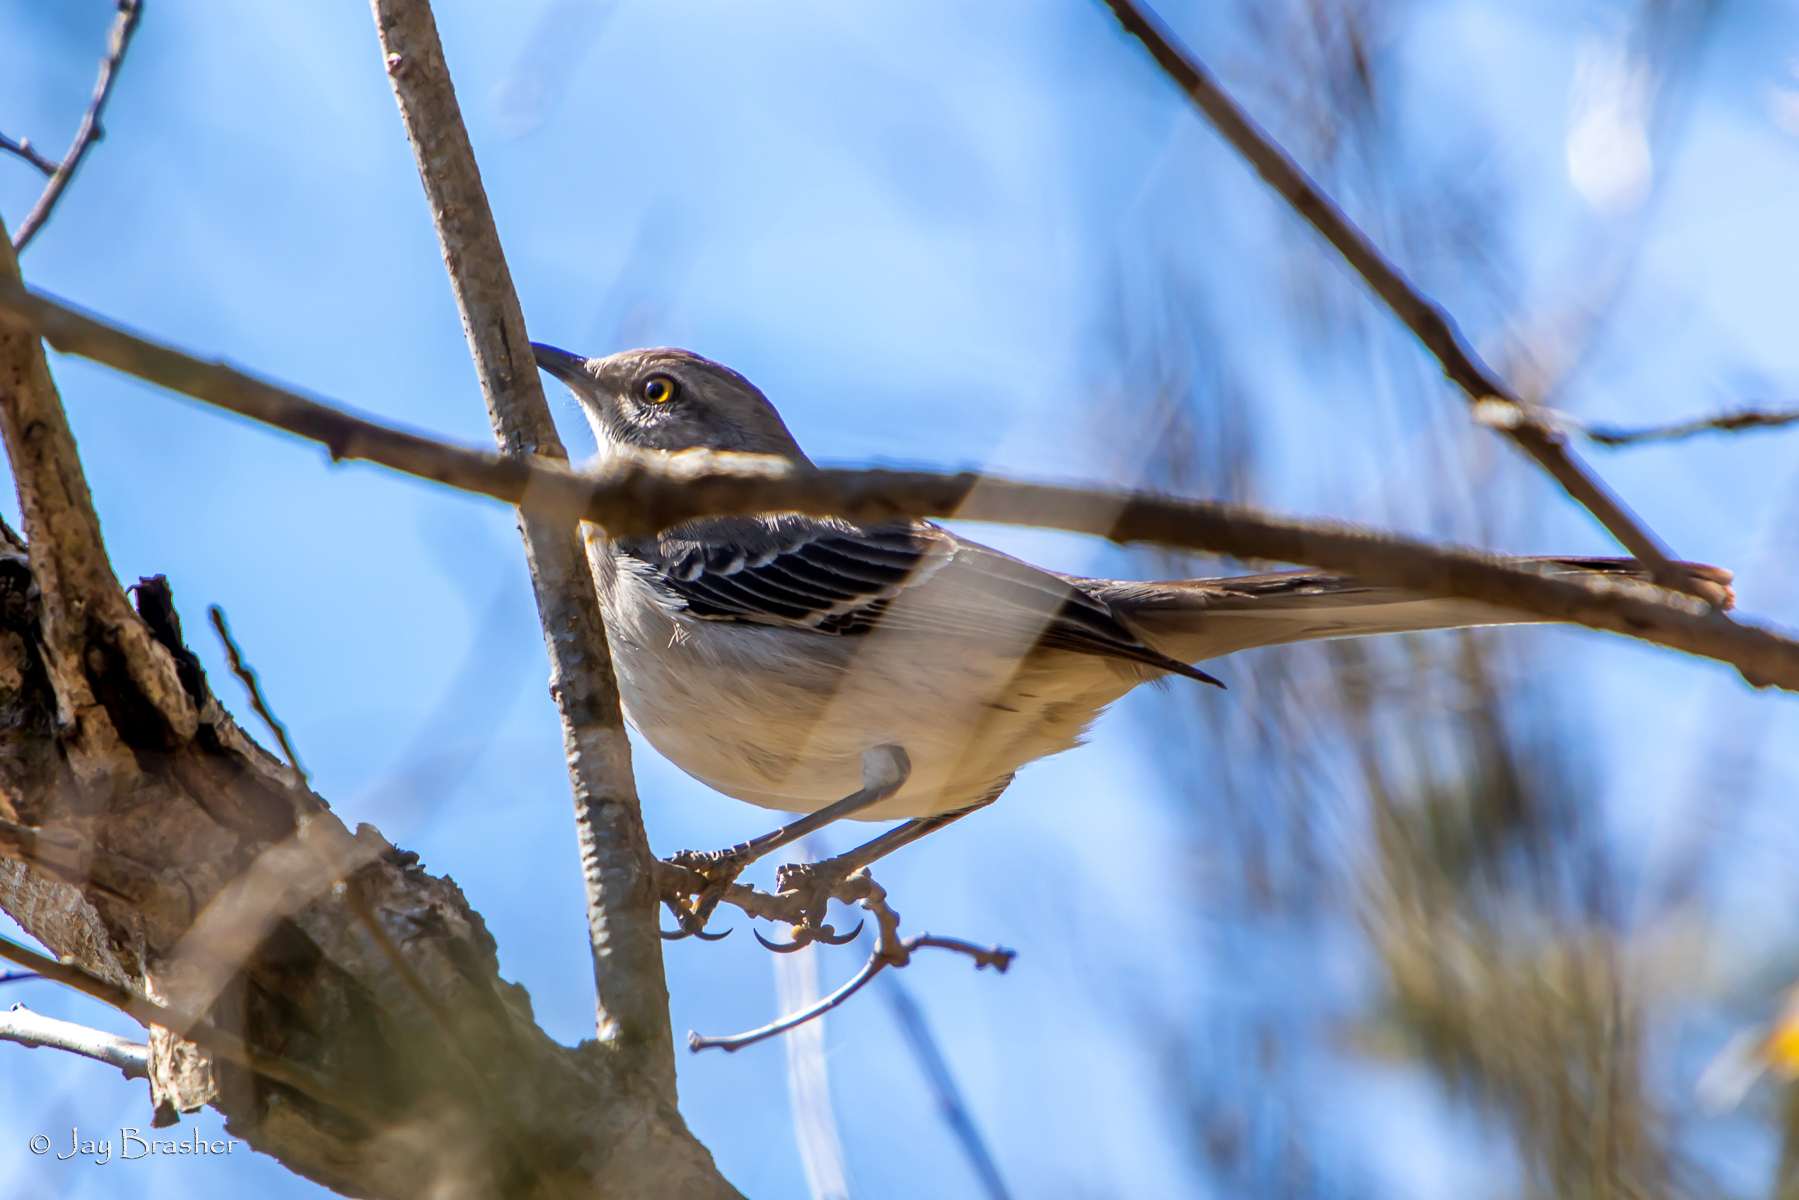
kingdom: Animalia
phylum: Chordata
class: Aves
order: Passeriformes
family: Mimidae
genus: Mimus
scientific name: Mimus polyglottos
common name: Northern mockingbird
